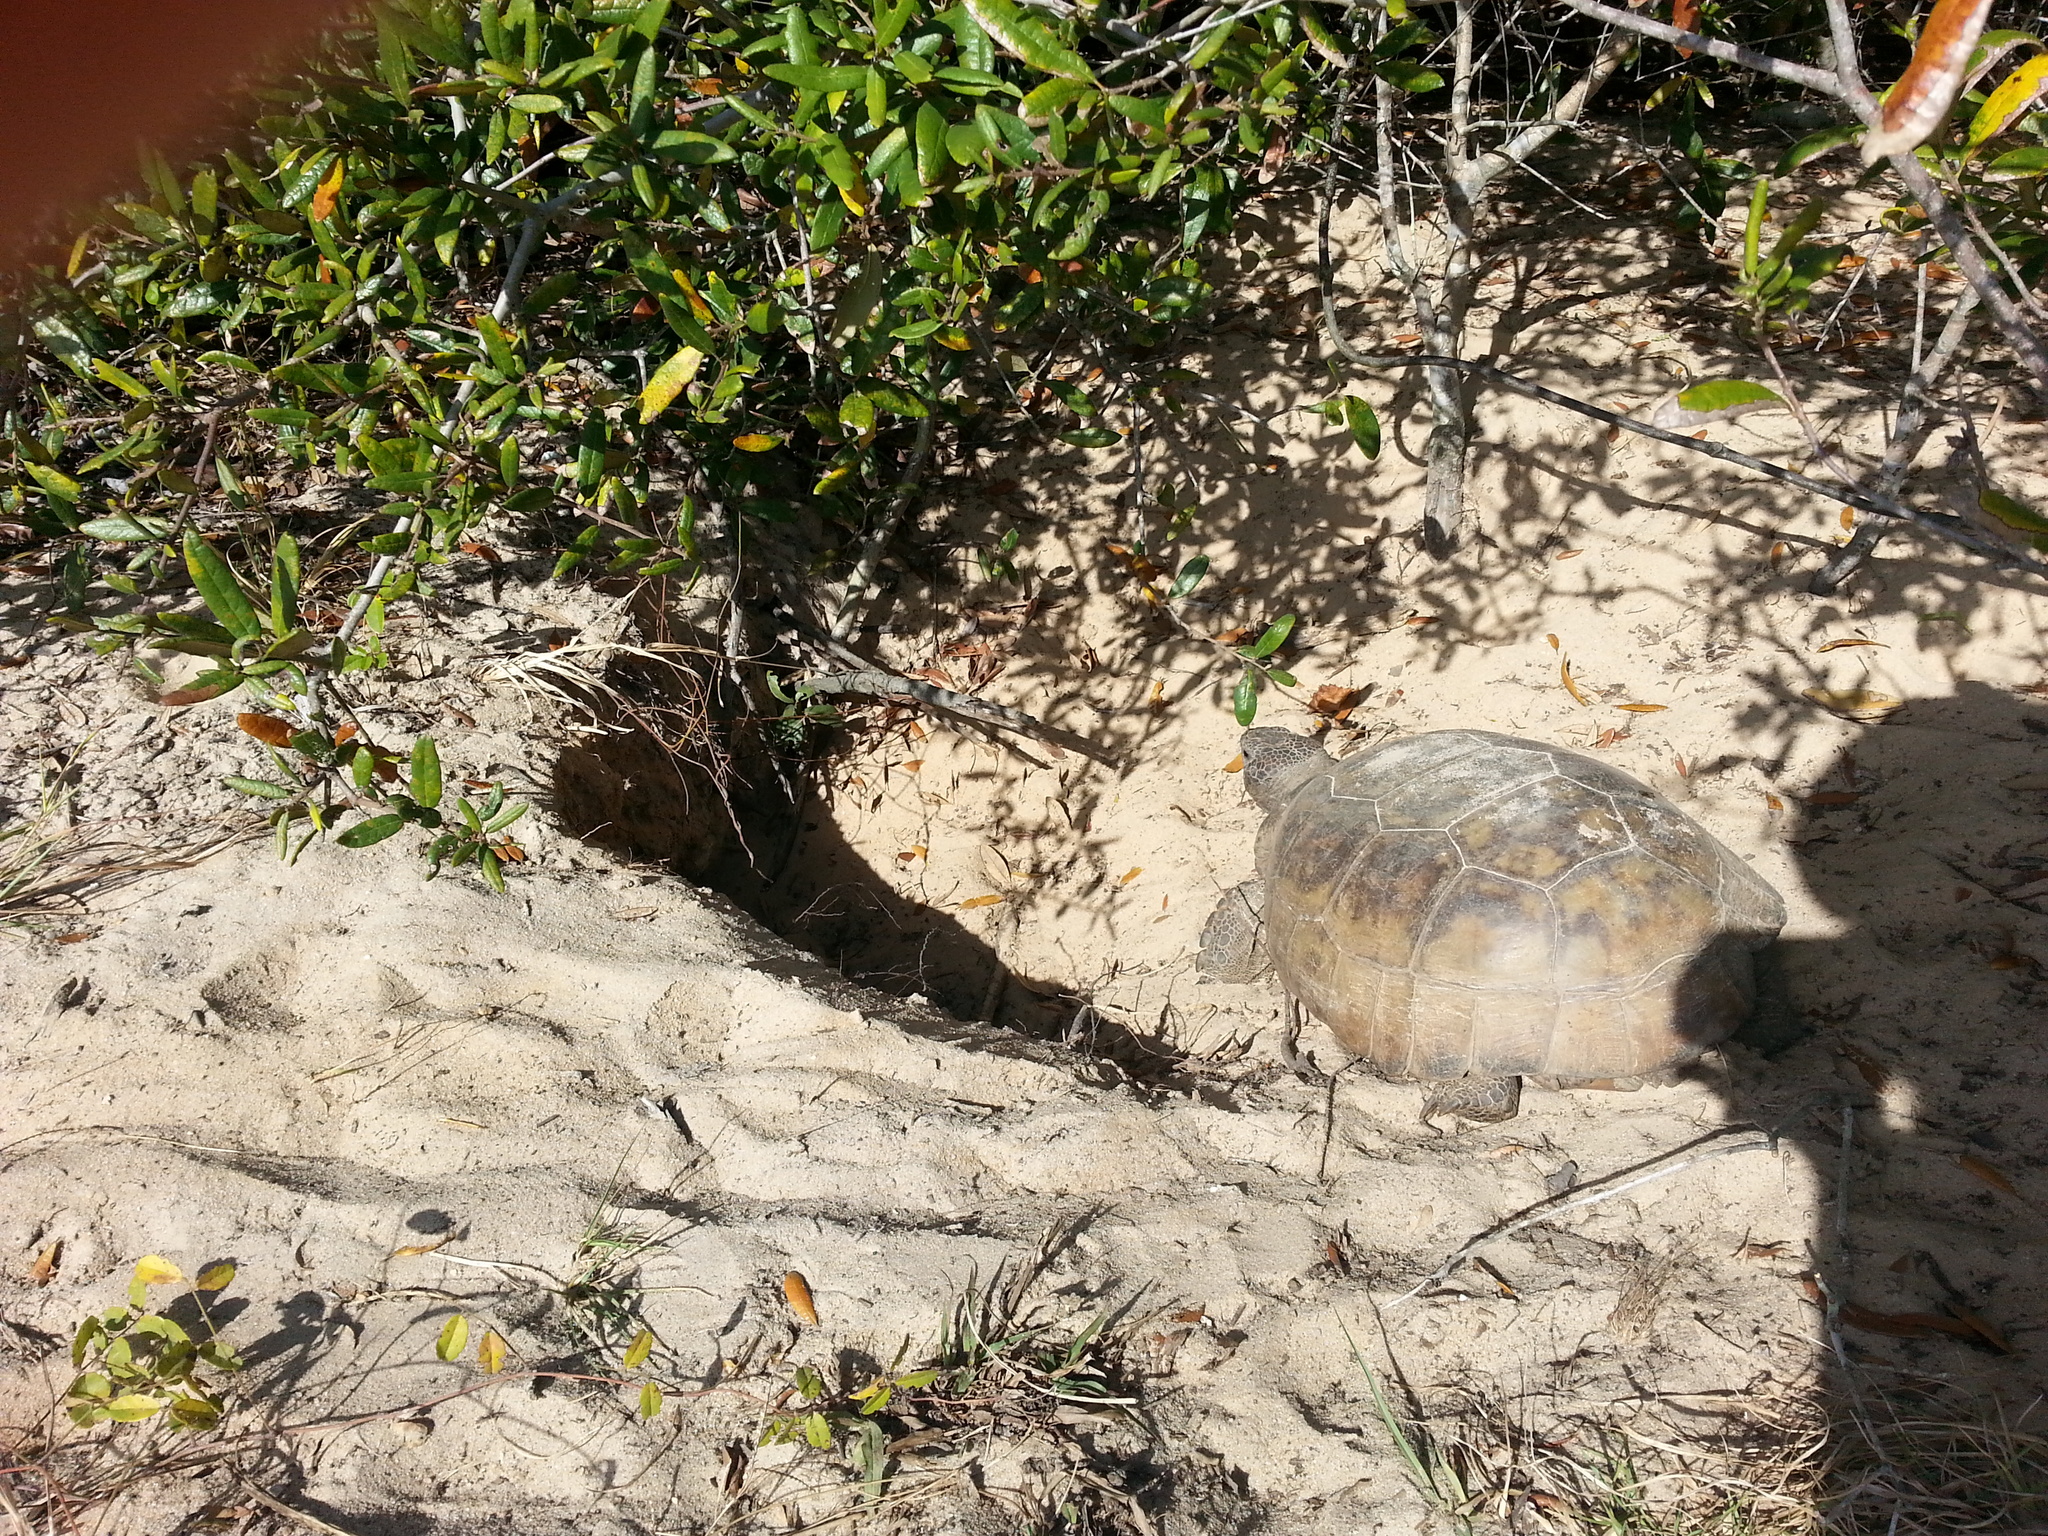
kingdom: Animalia
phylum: Chordata
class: Testudines
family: Testudinidae
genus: Gopherus
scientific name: Gopherus polyphemus
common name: Florida gopher tortoise
